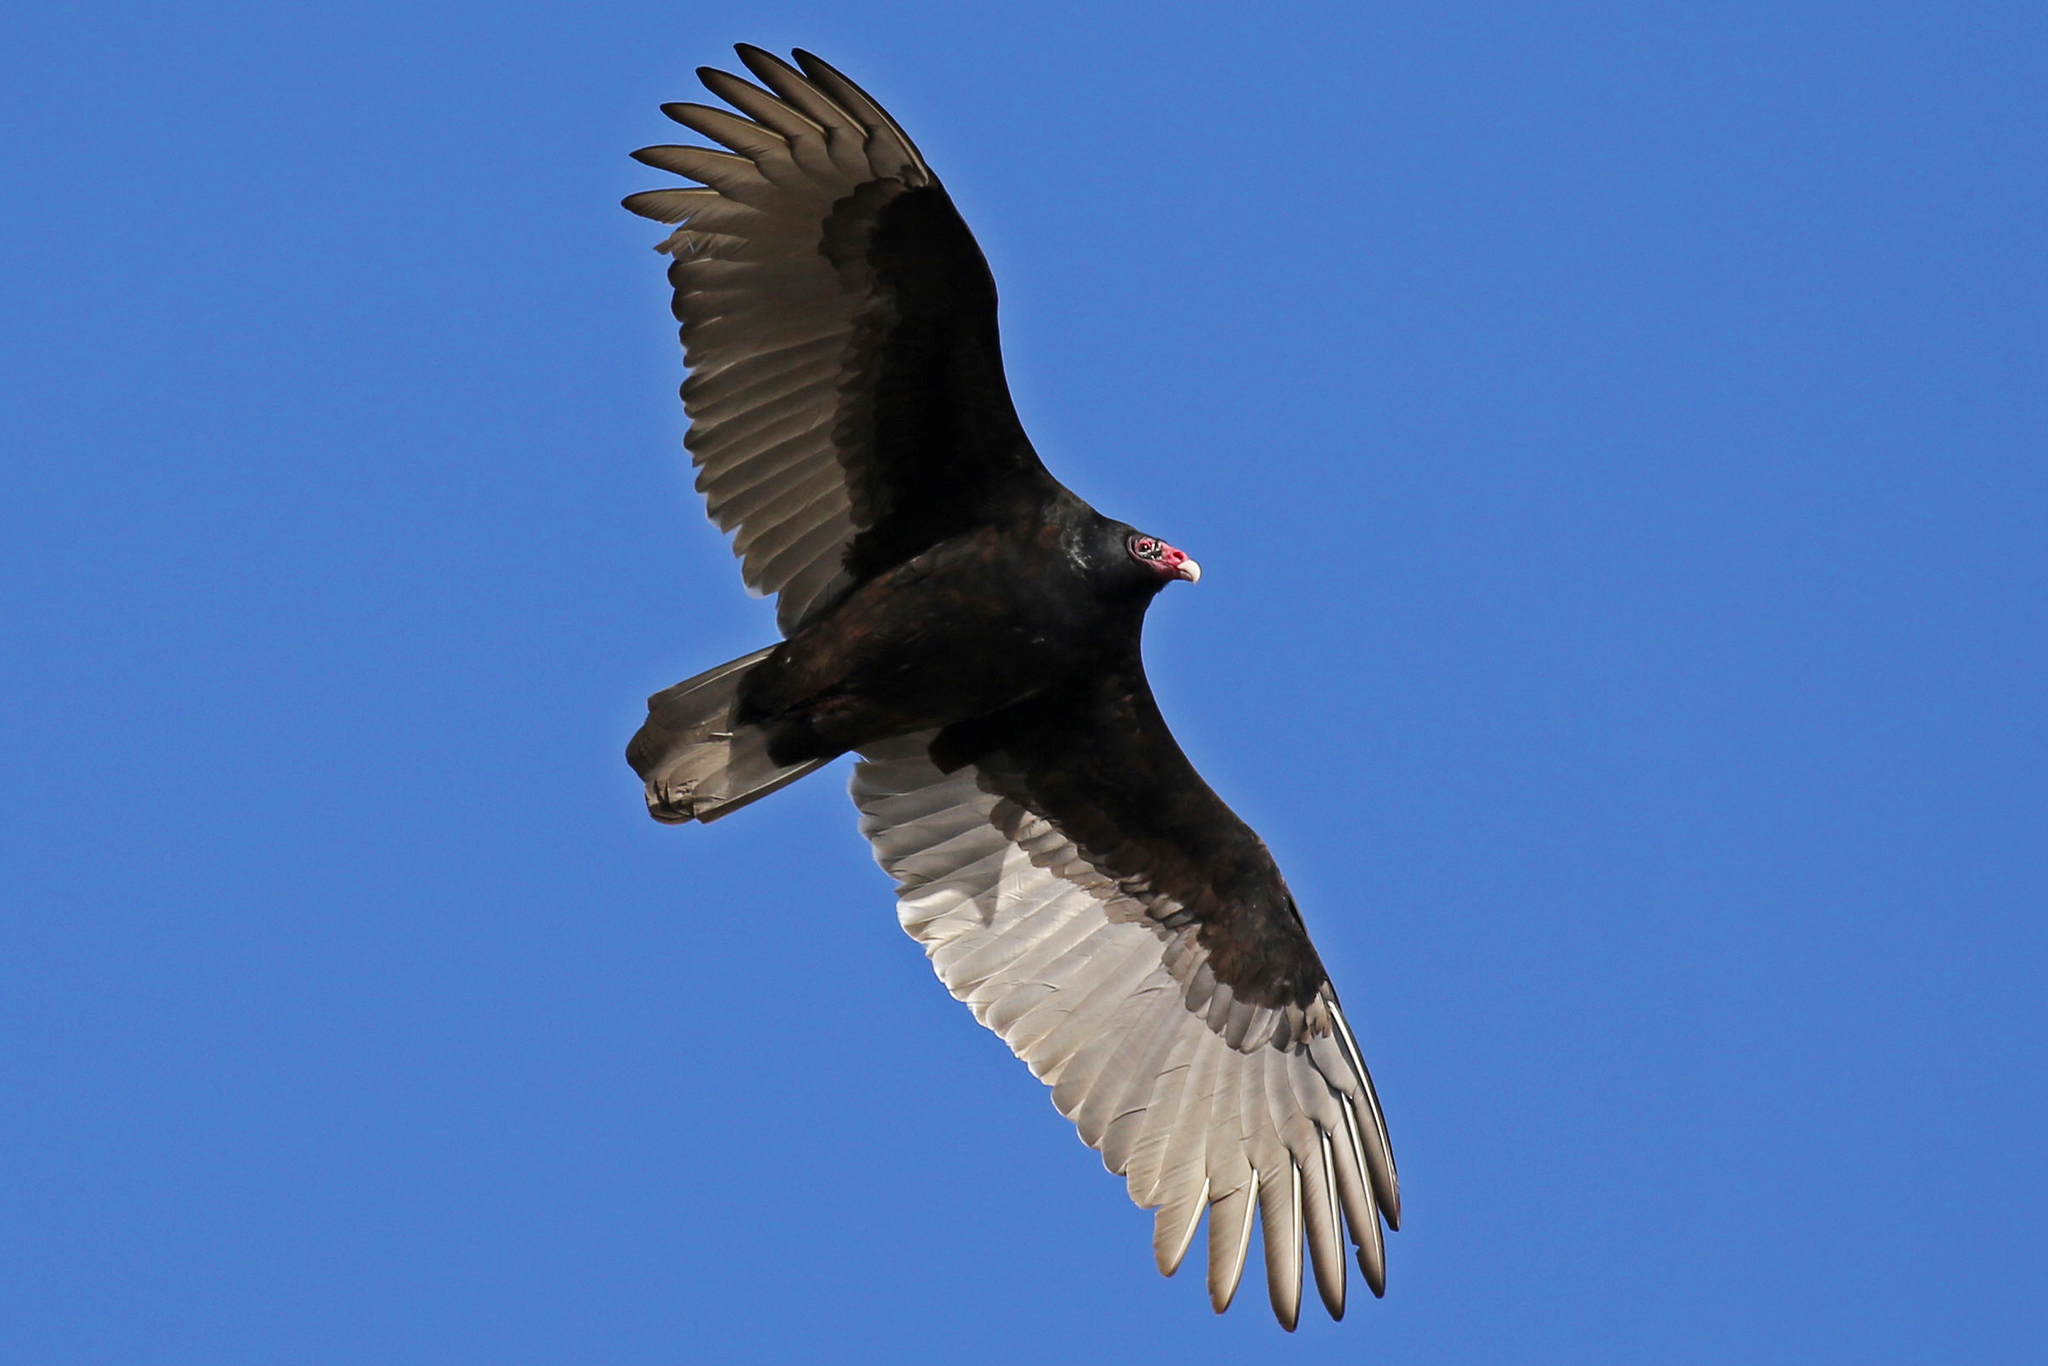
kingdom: Animalia
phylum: Chordata
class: Aves
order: Accipitriformes
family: Cathartidae
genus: Cathartes
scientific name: Cathartes aura
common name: Turkey vulture
